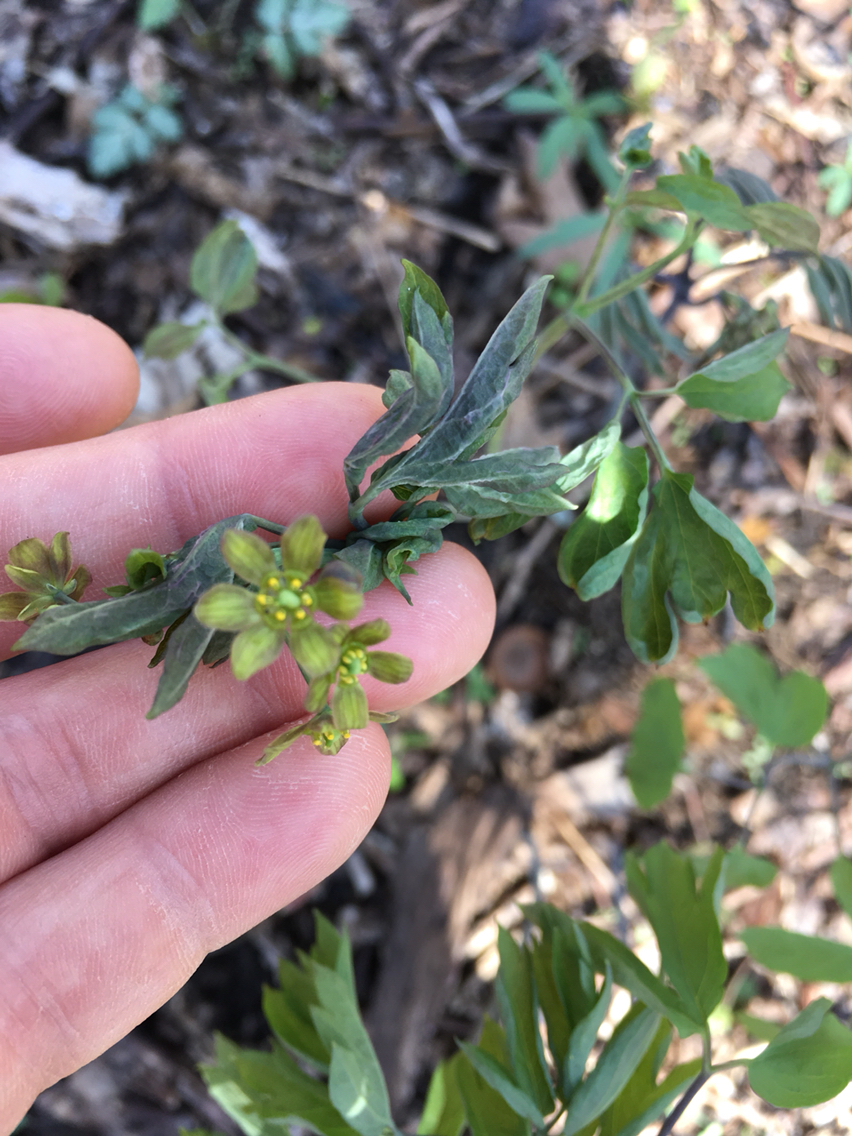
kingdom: Plantae
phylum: Tracheophyta
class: Magnoliopsida
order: Ranunculales
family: Berberidaceae
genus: Caulophyllum
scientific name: Caulophyllum thalictroides
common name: Blue cohosh
